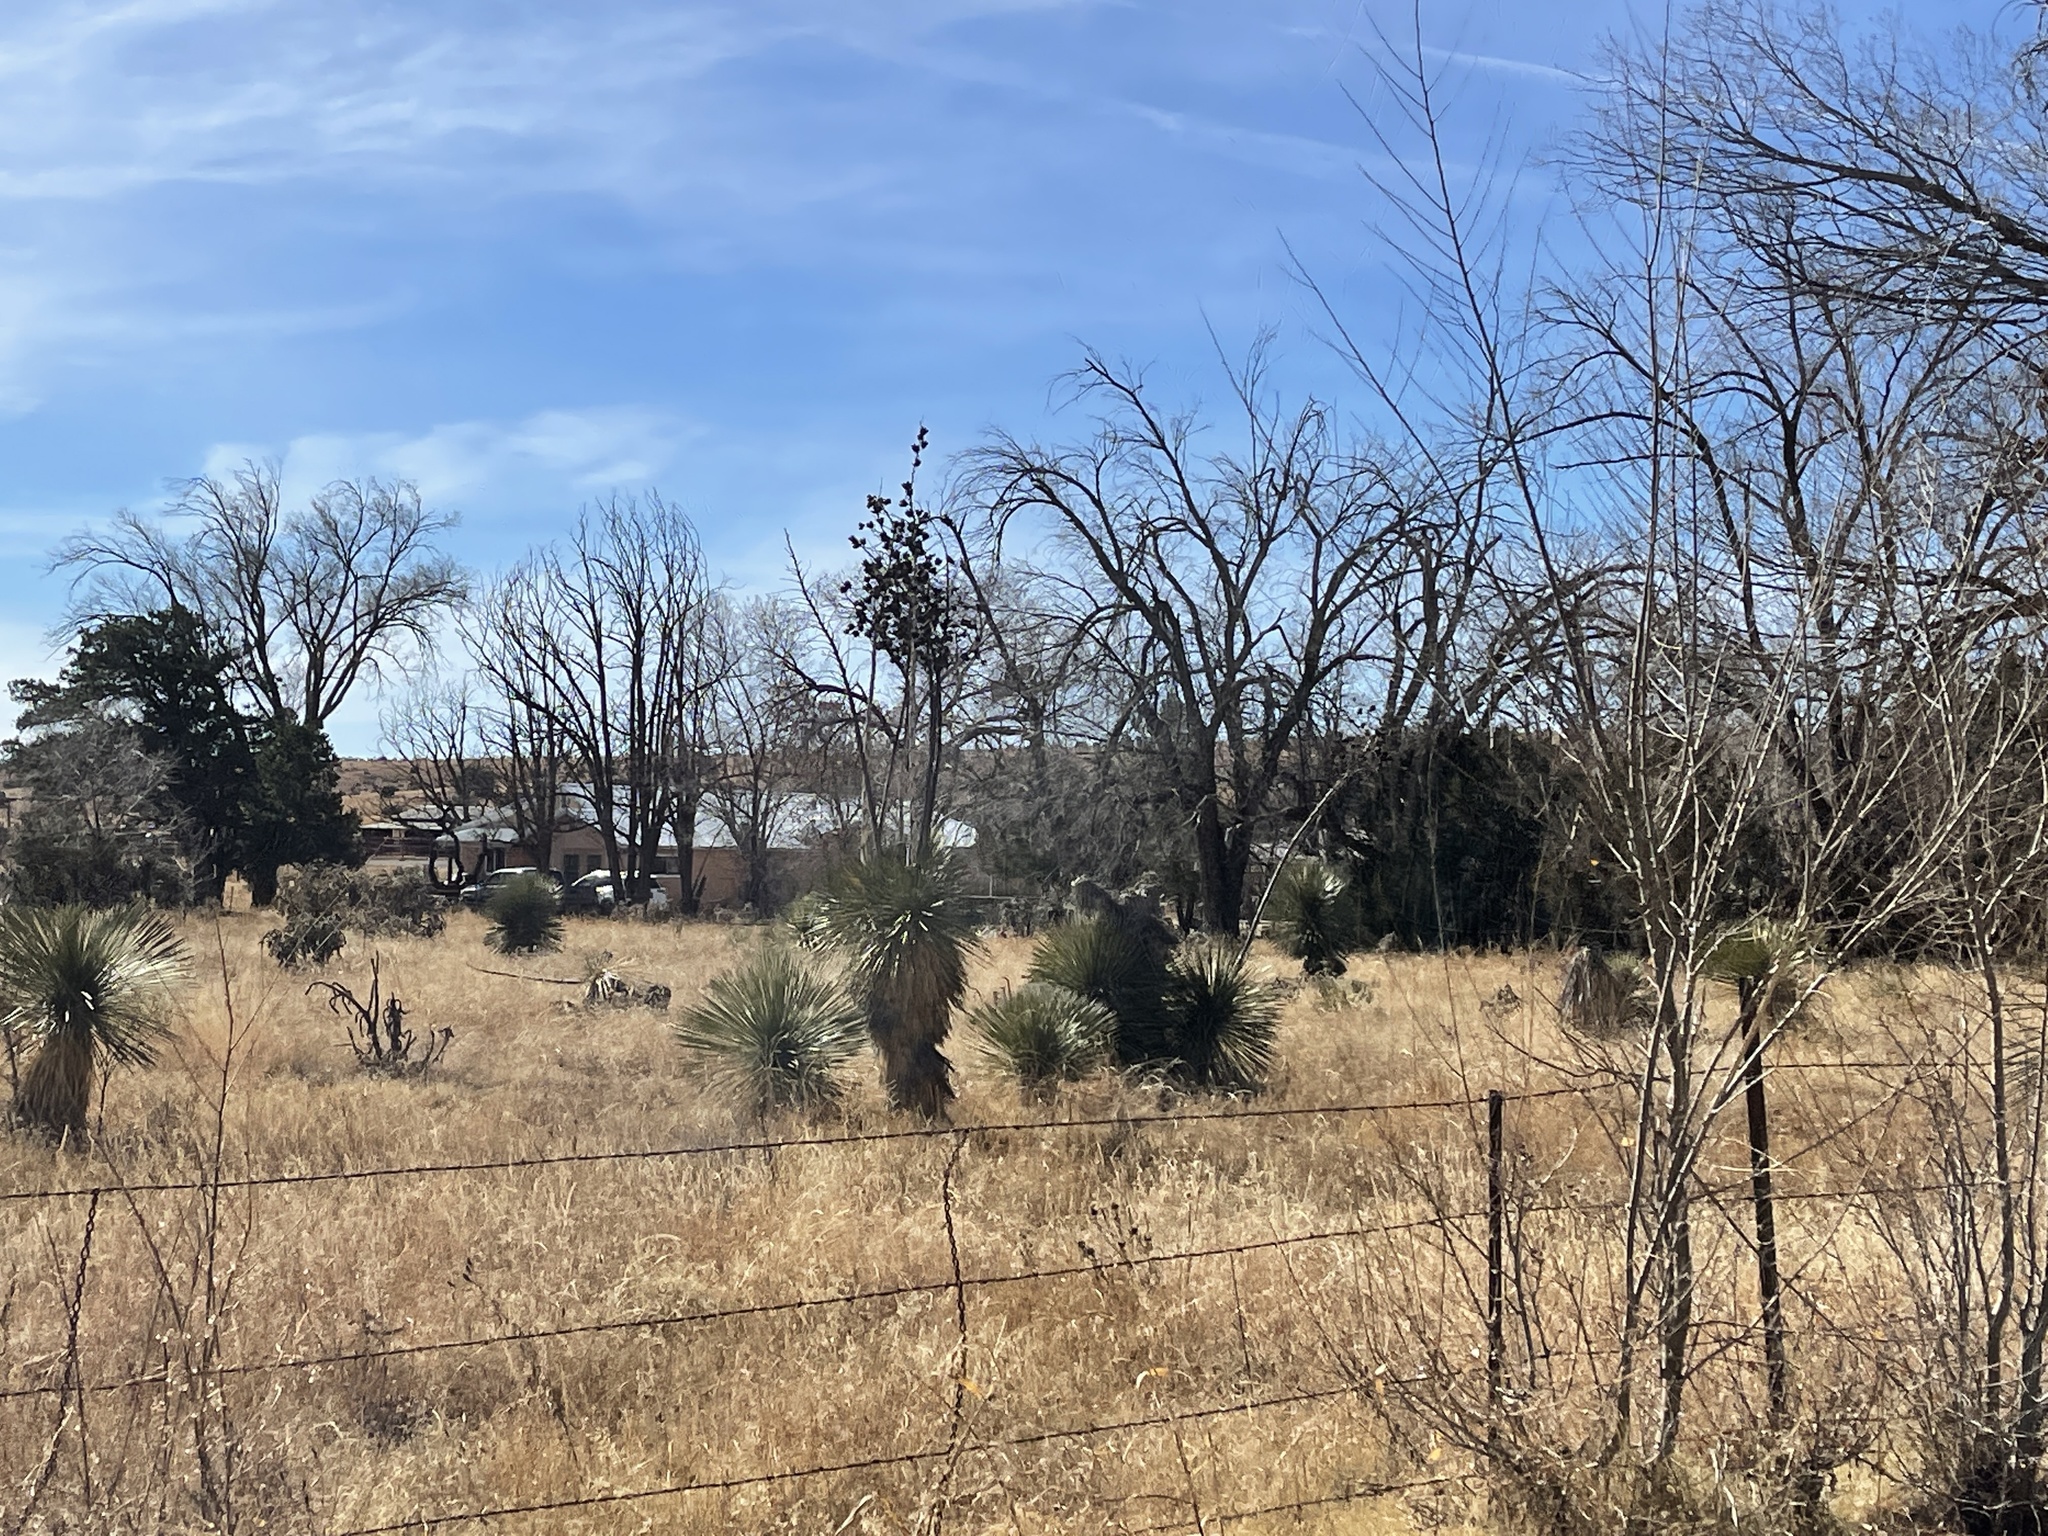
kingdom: Plantae
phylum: Tracheophyta
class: Liliopsida
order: Asparagales
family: Asparagaceae
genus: Yucca
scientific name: Yucca elata
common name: Palmella
